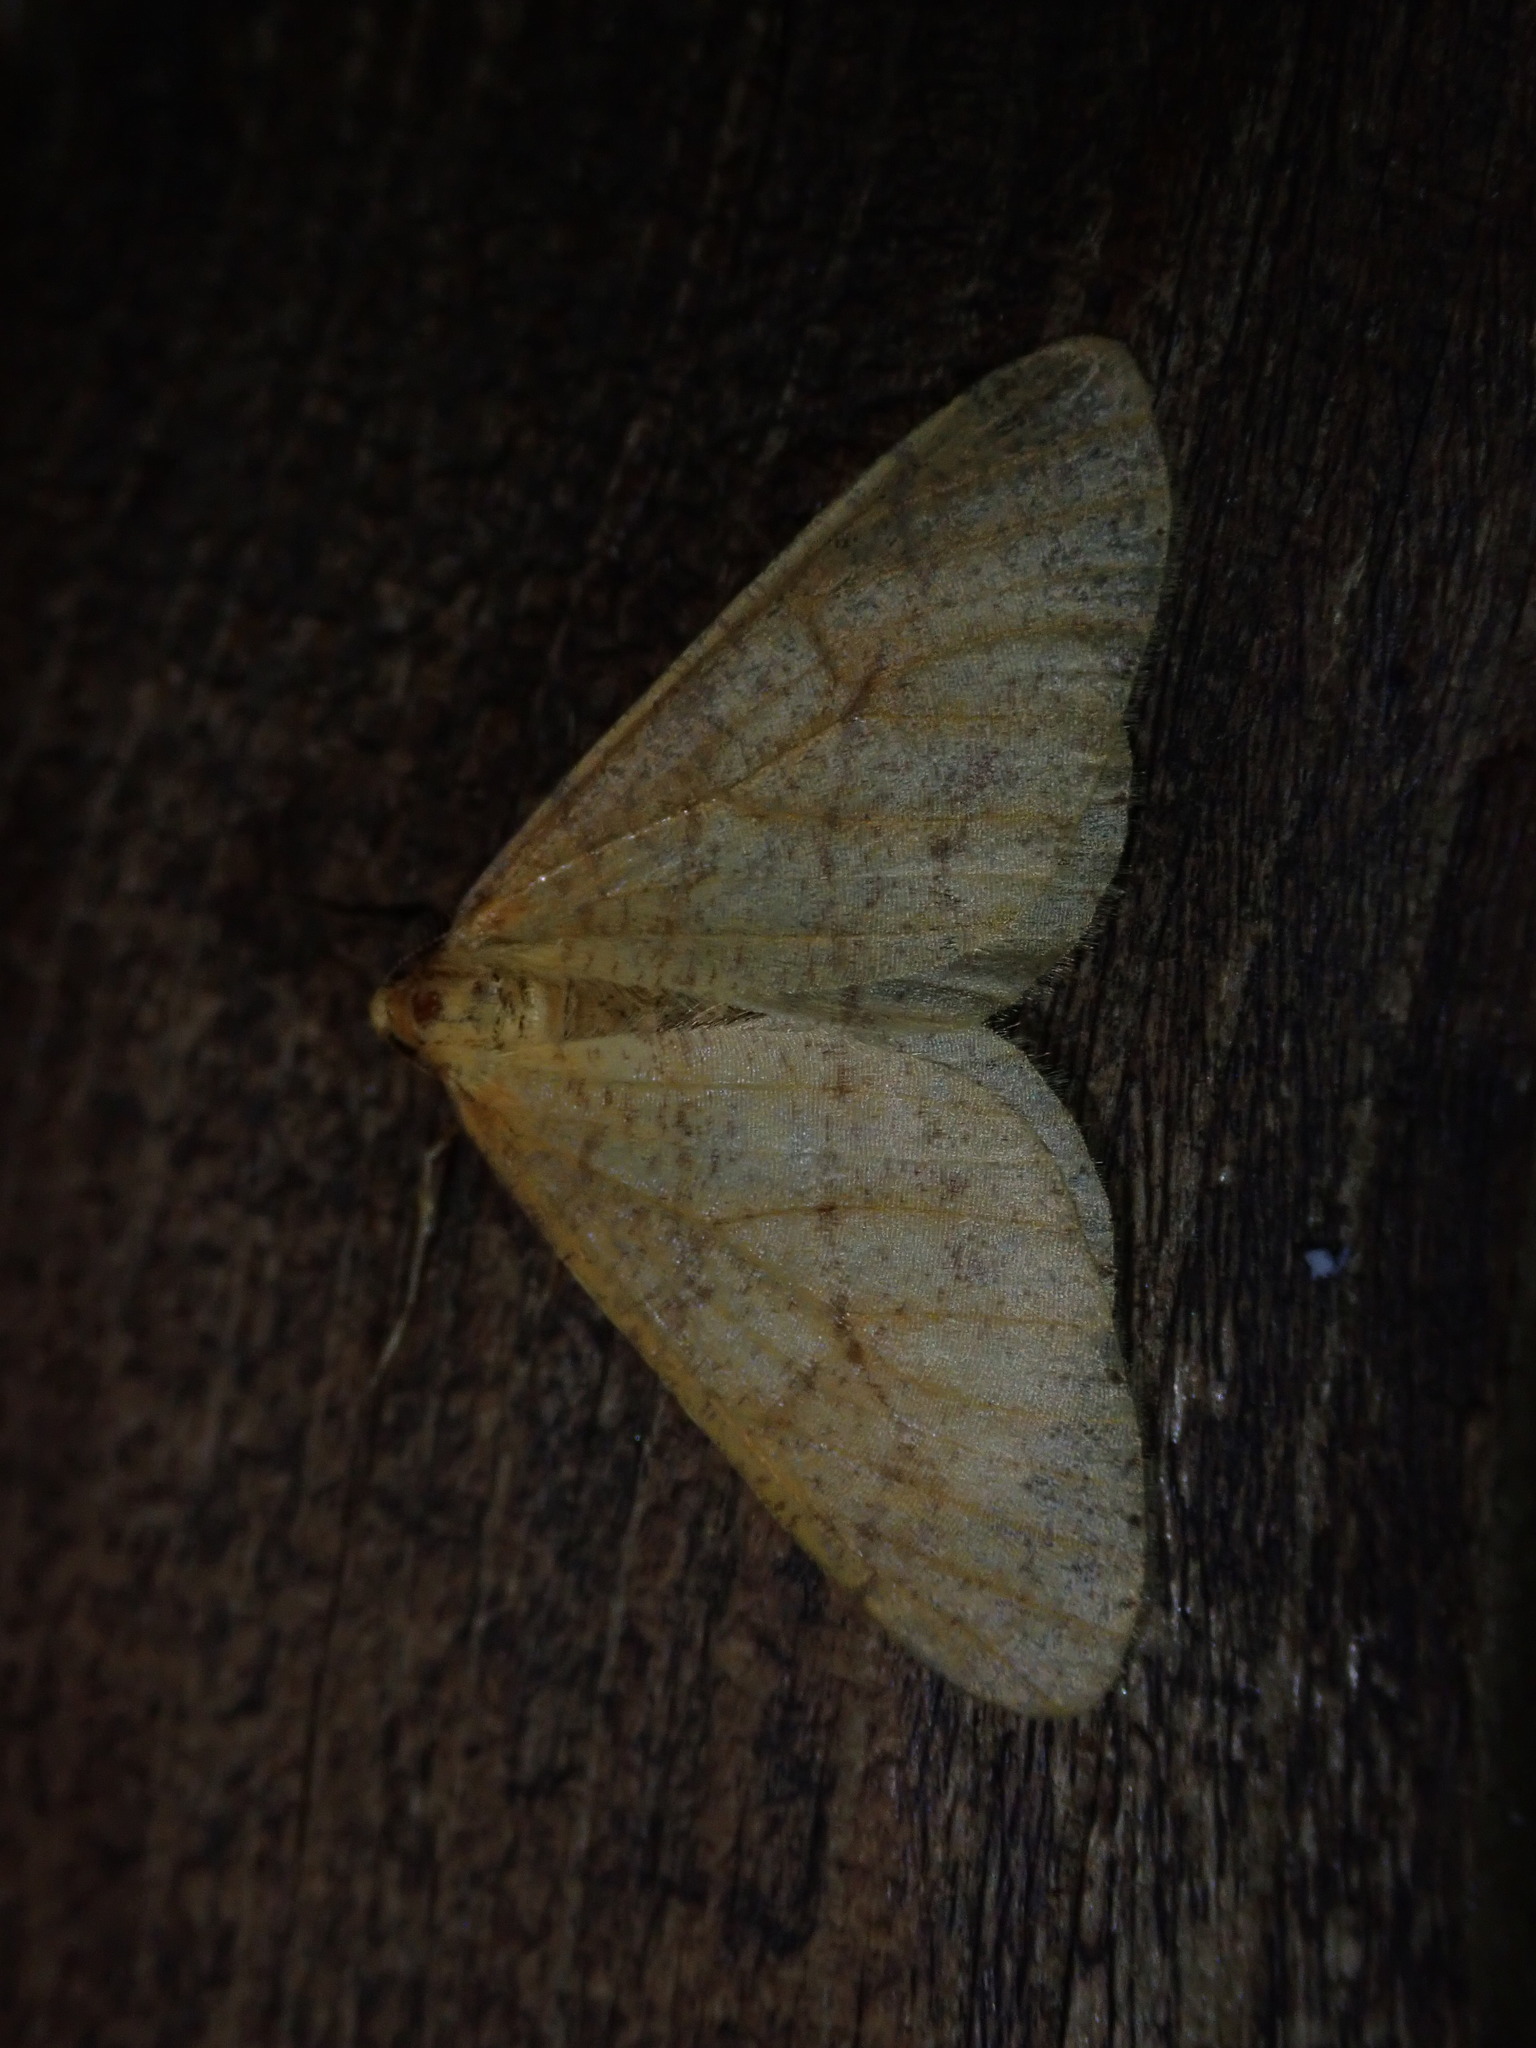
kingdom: Animalia
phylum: Arthropoda
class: Insecta
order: Lepidoptera
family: Geometridae
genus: Agriopis
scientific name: Agriopis aurantiaria
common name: Scarce umber
